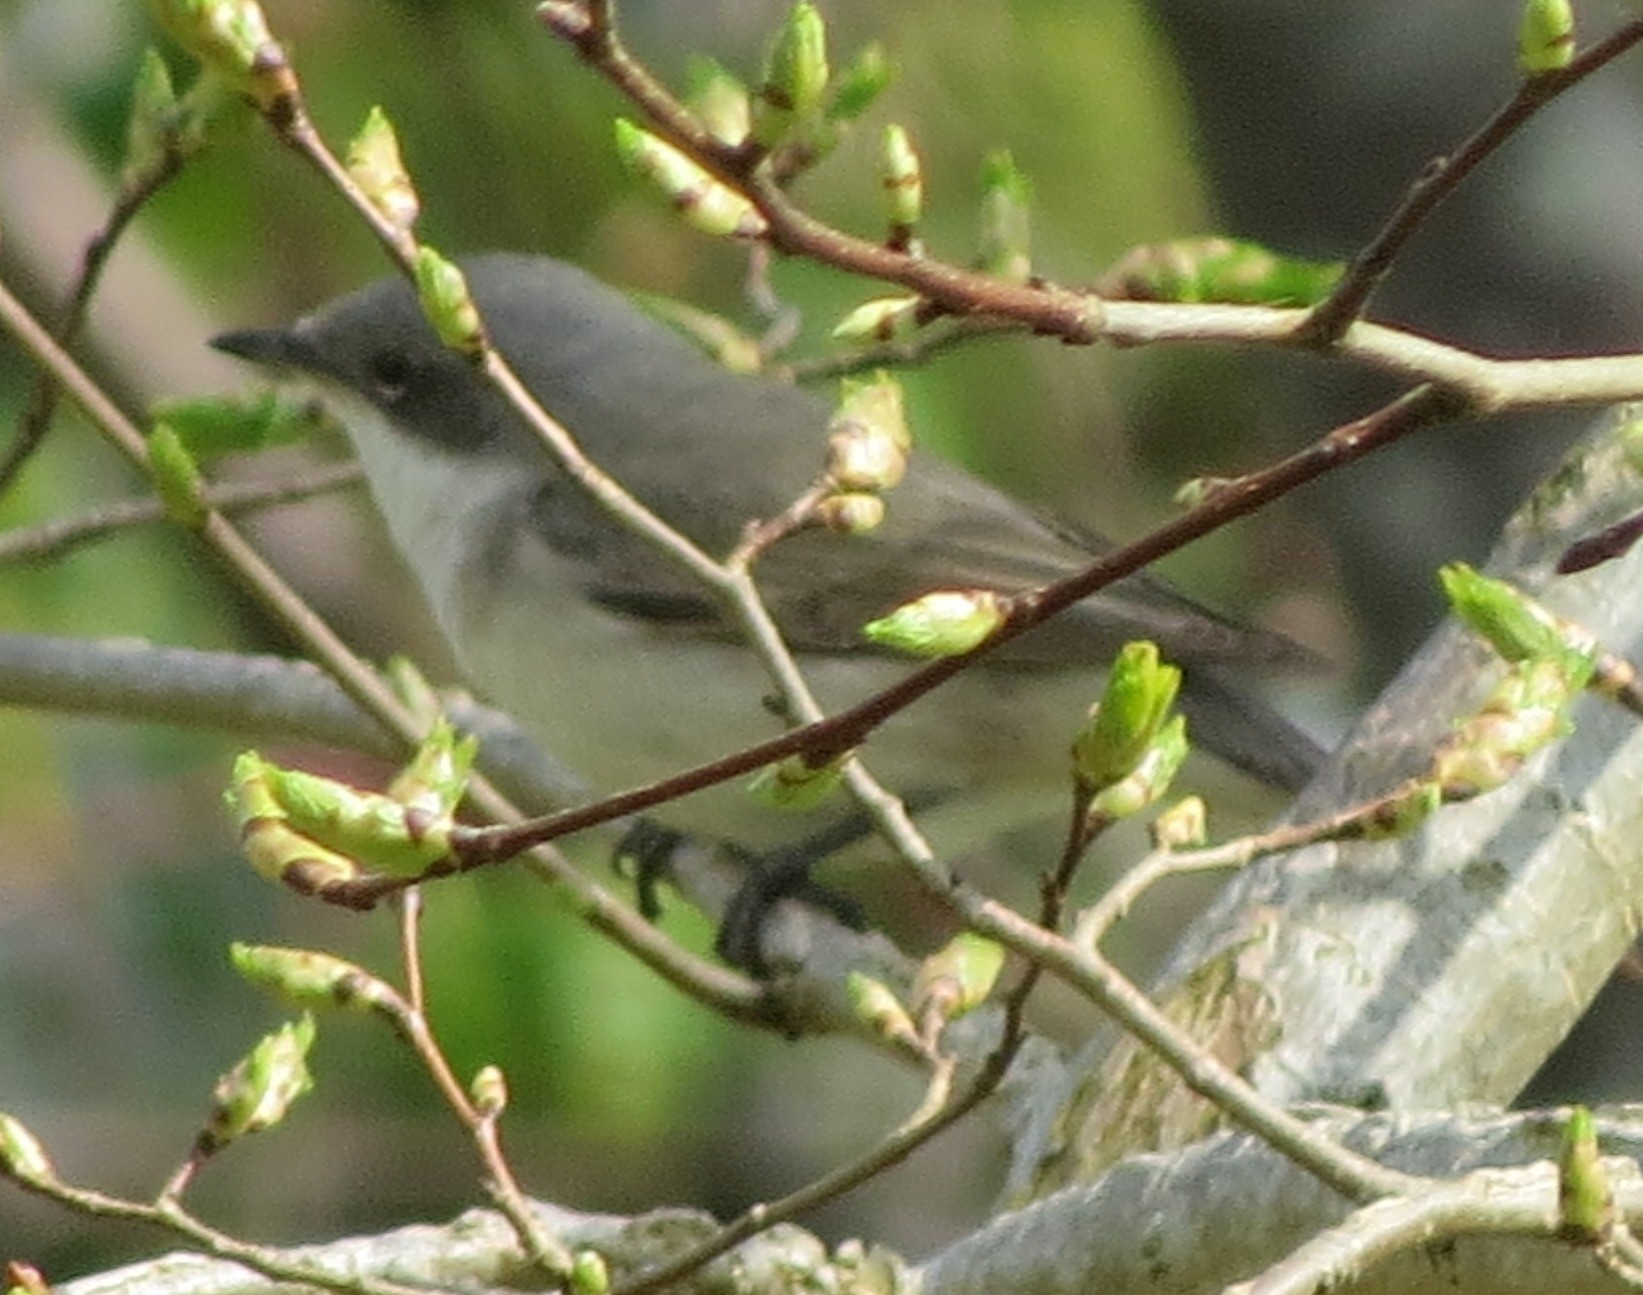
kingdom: Animalia
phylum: Chordata
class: Aves
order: Passeriformes
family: Sylviidae
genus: Sylvia
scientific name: Sylvia curruca
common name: Lesser whitethroat
